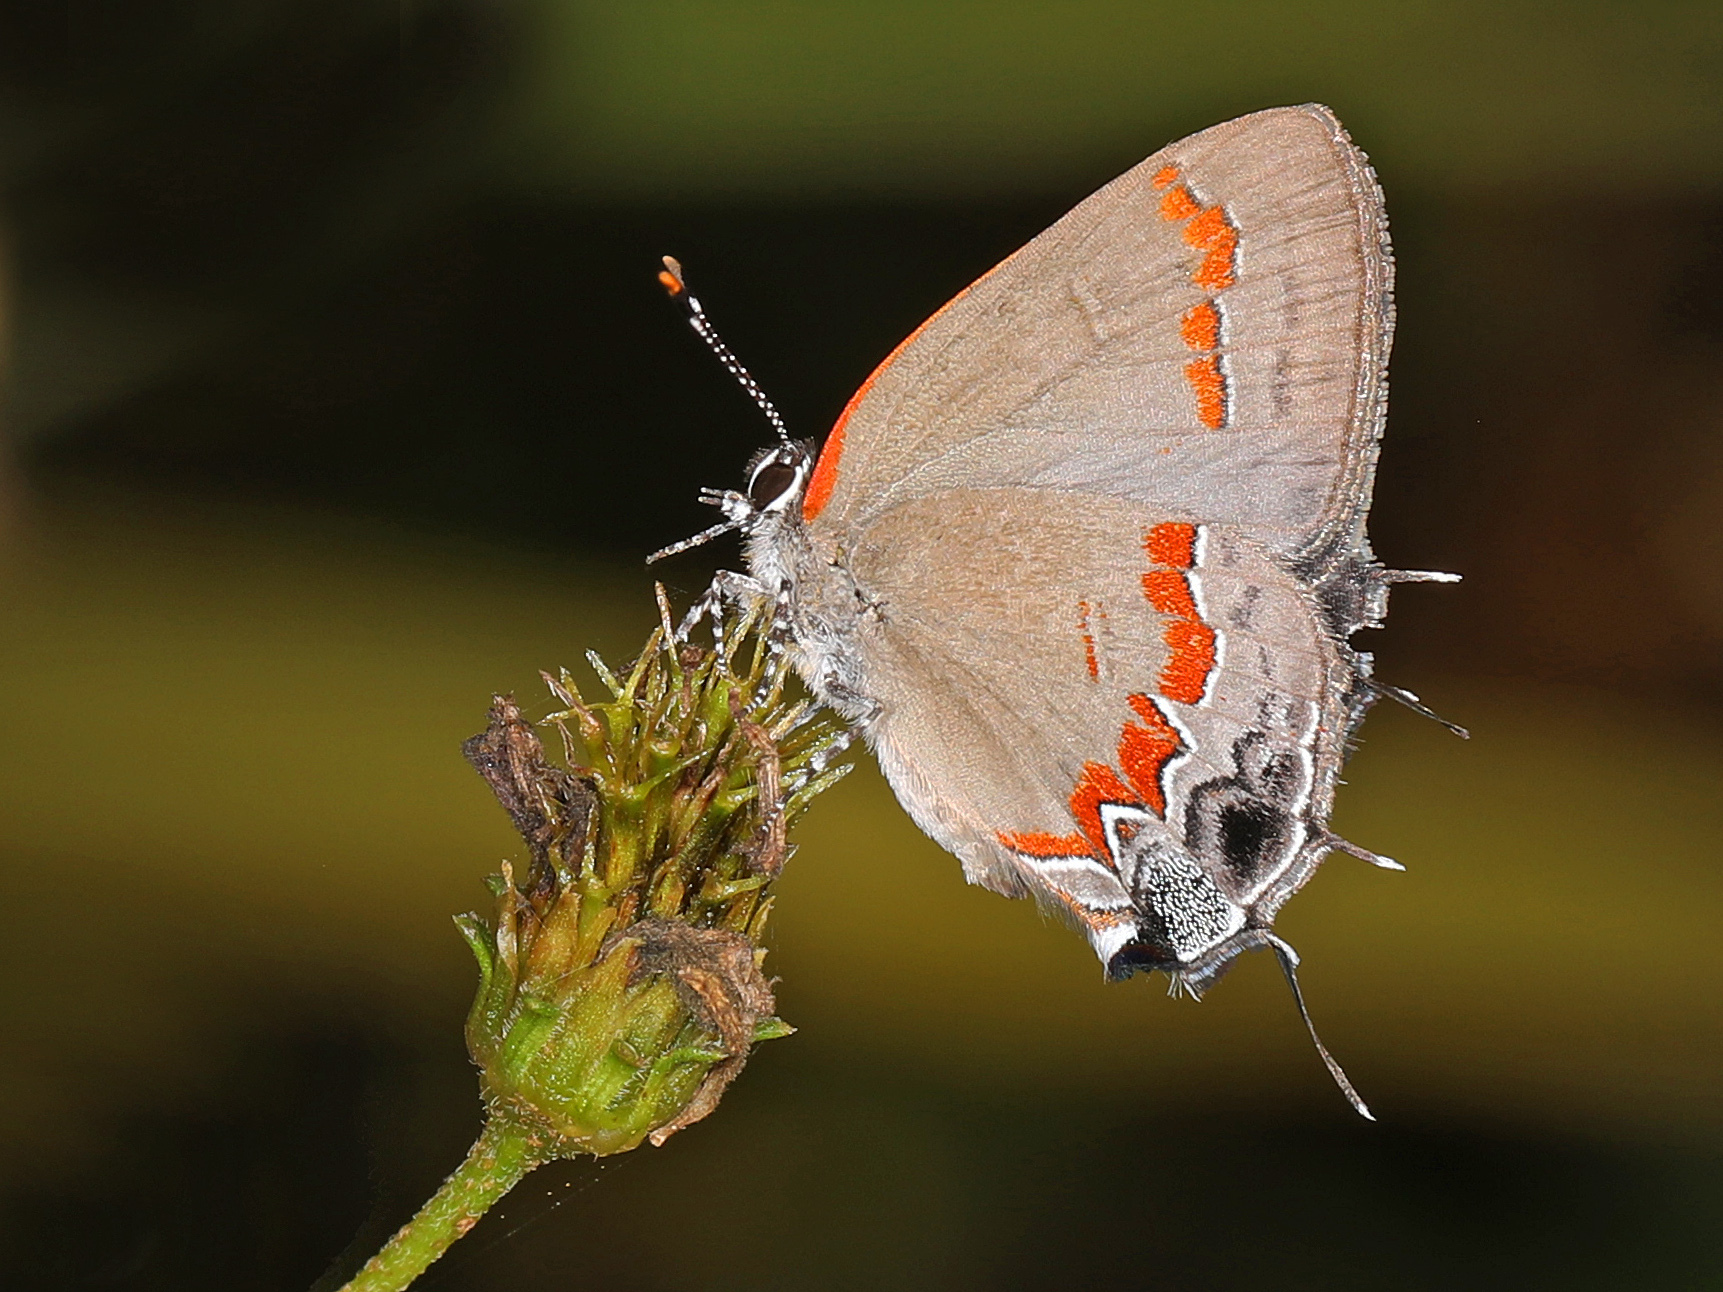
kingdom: Animalia
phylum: Arthropoda
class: Insecta
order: Lepidoptera
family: Lycaenidae
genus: Calycopis
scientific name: Calycopis cecrops
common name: Red-banded hairstreak
